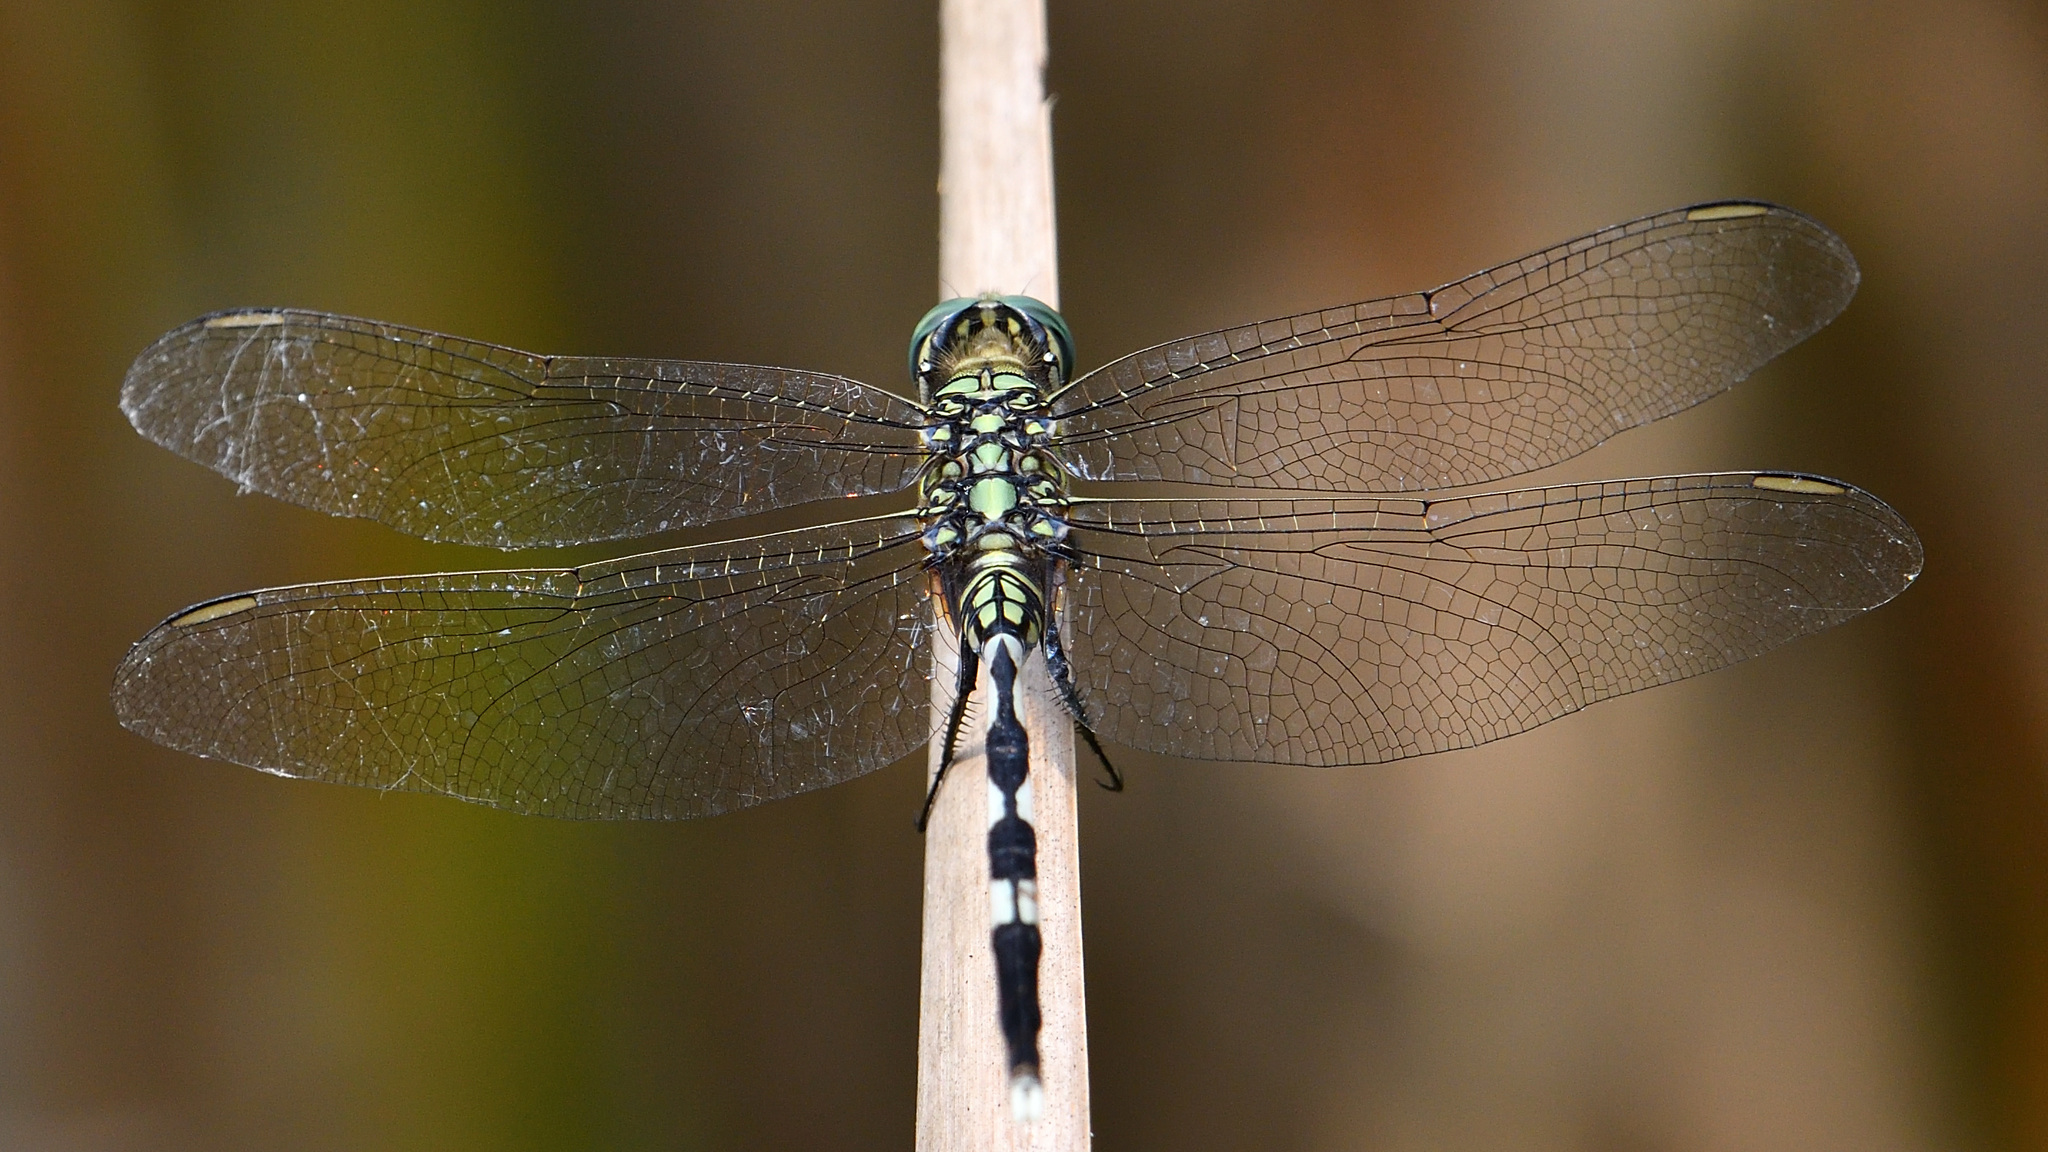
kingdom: Animalia
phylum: Arthropoda
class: Insecta
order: Odonata
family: Libellulidae
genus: Orthetrum
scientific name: Orthetrum sabina
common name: Slender skimmer
